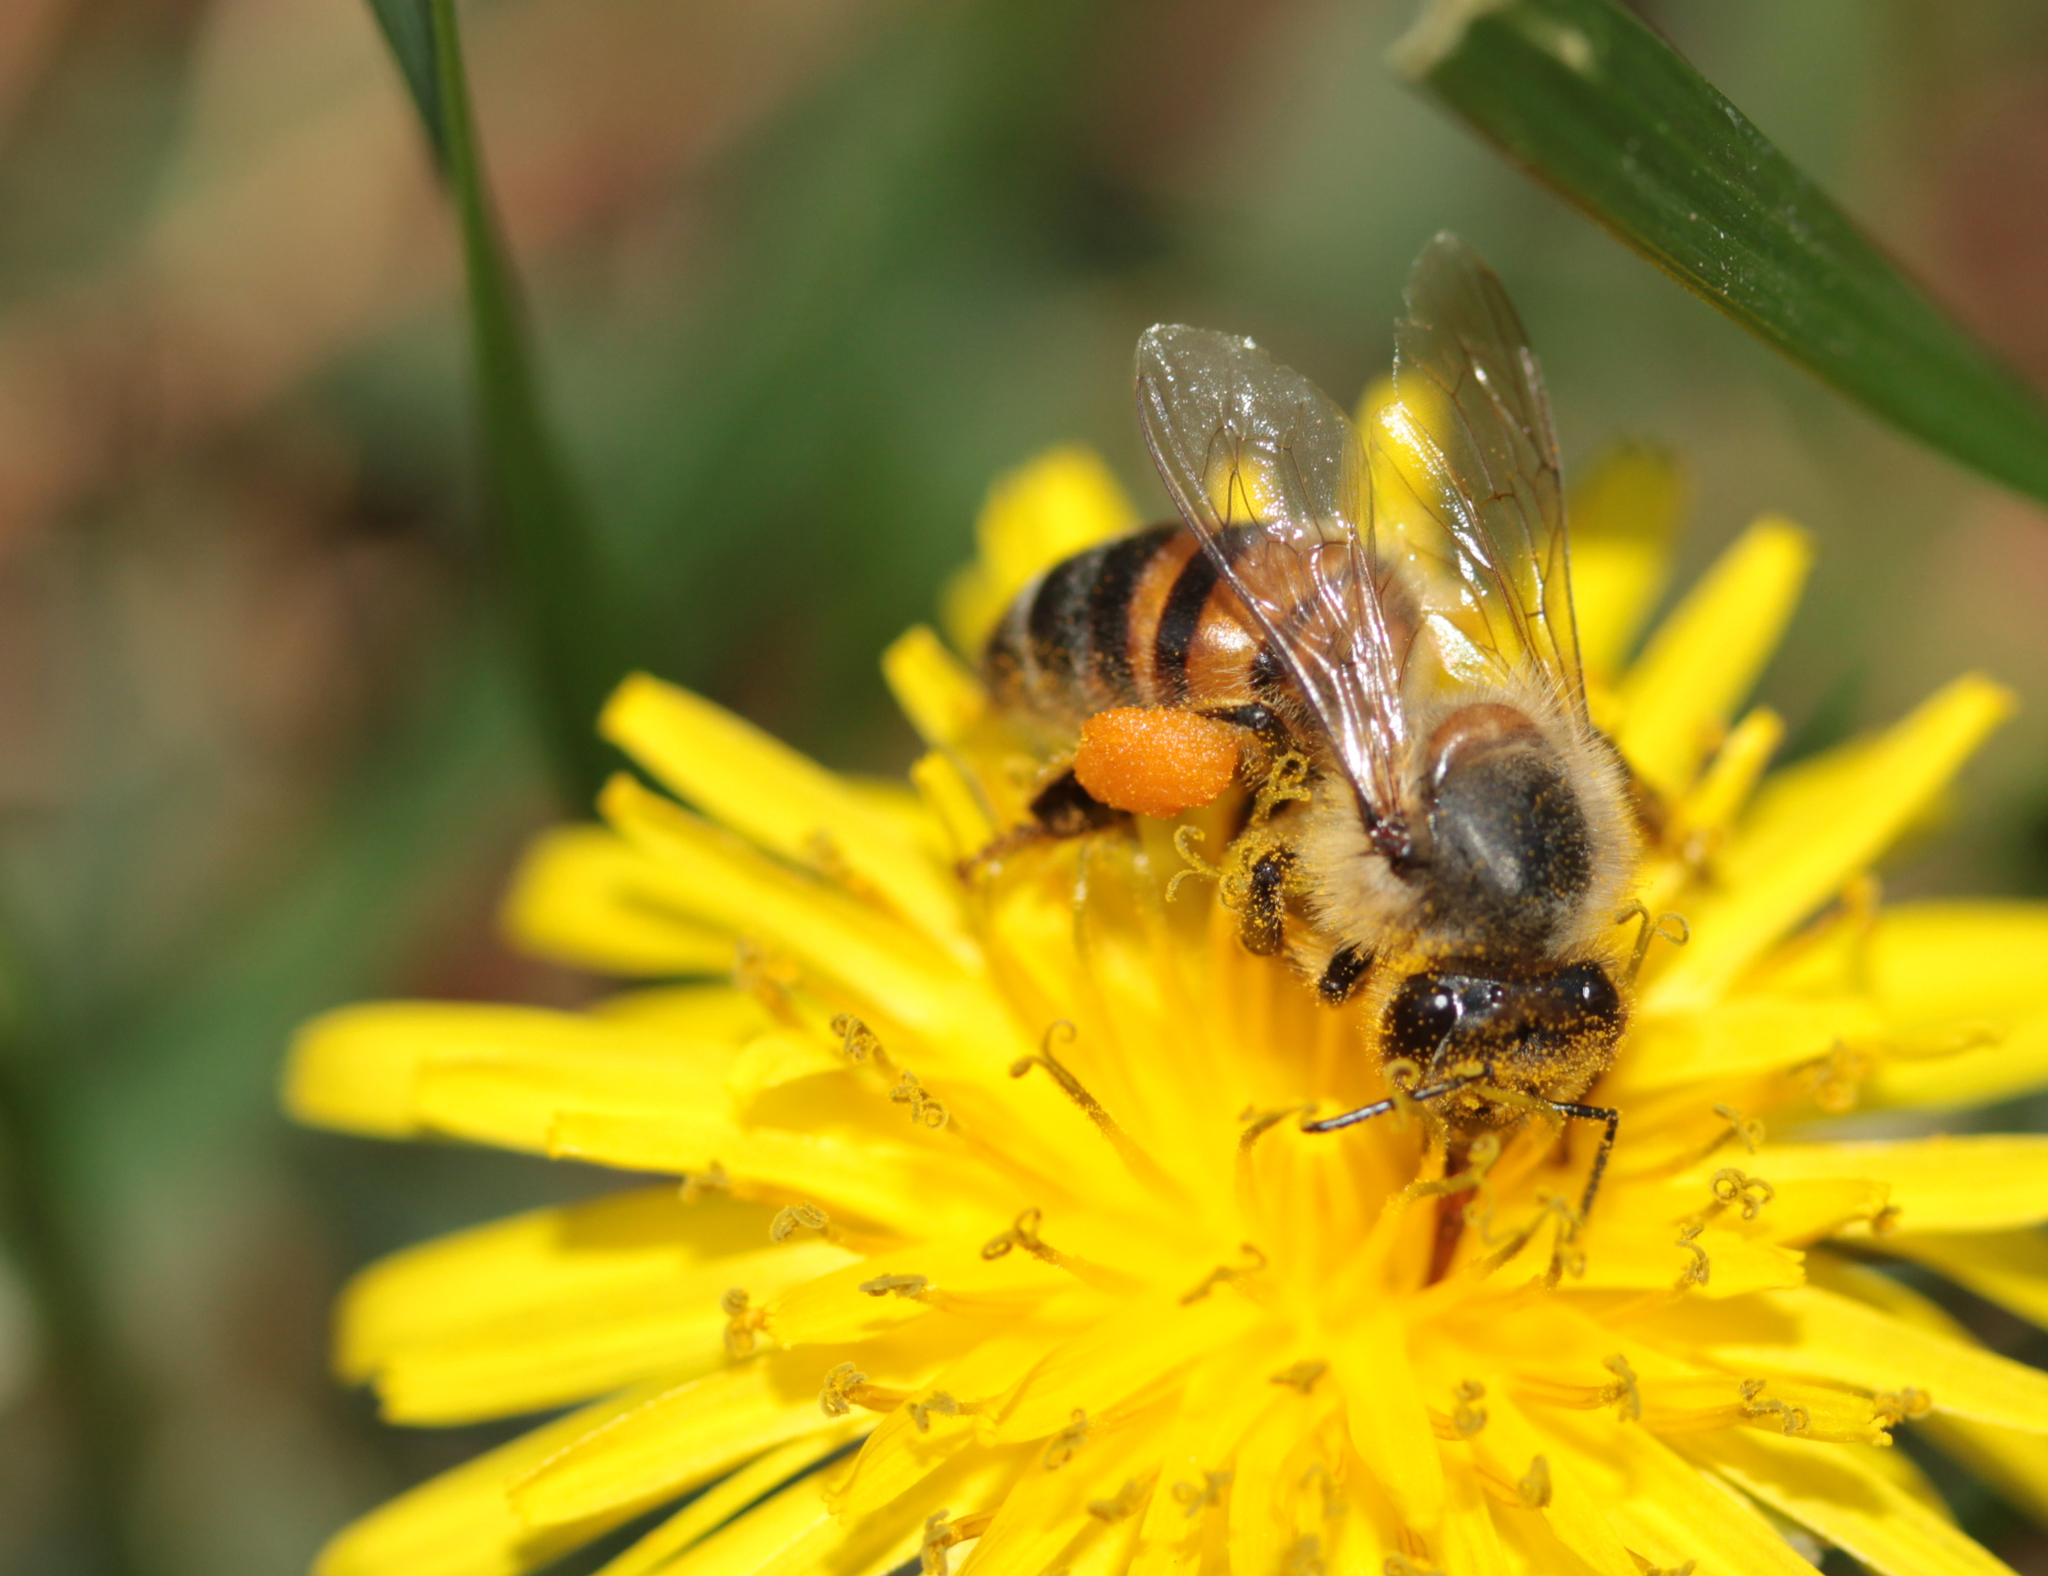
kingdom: Animalia
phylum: Arthropoda
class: Insecta
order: Hymenoptera
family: Apidae
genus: Apis
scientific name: Apis mellifera
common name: Honey bee
